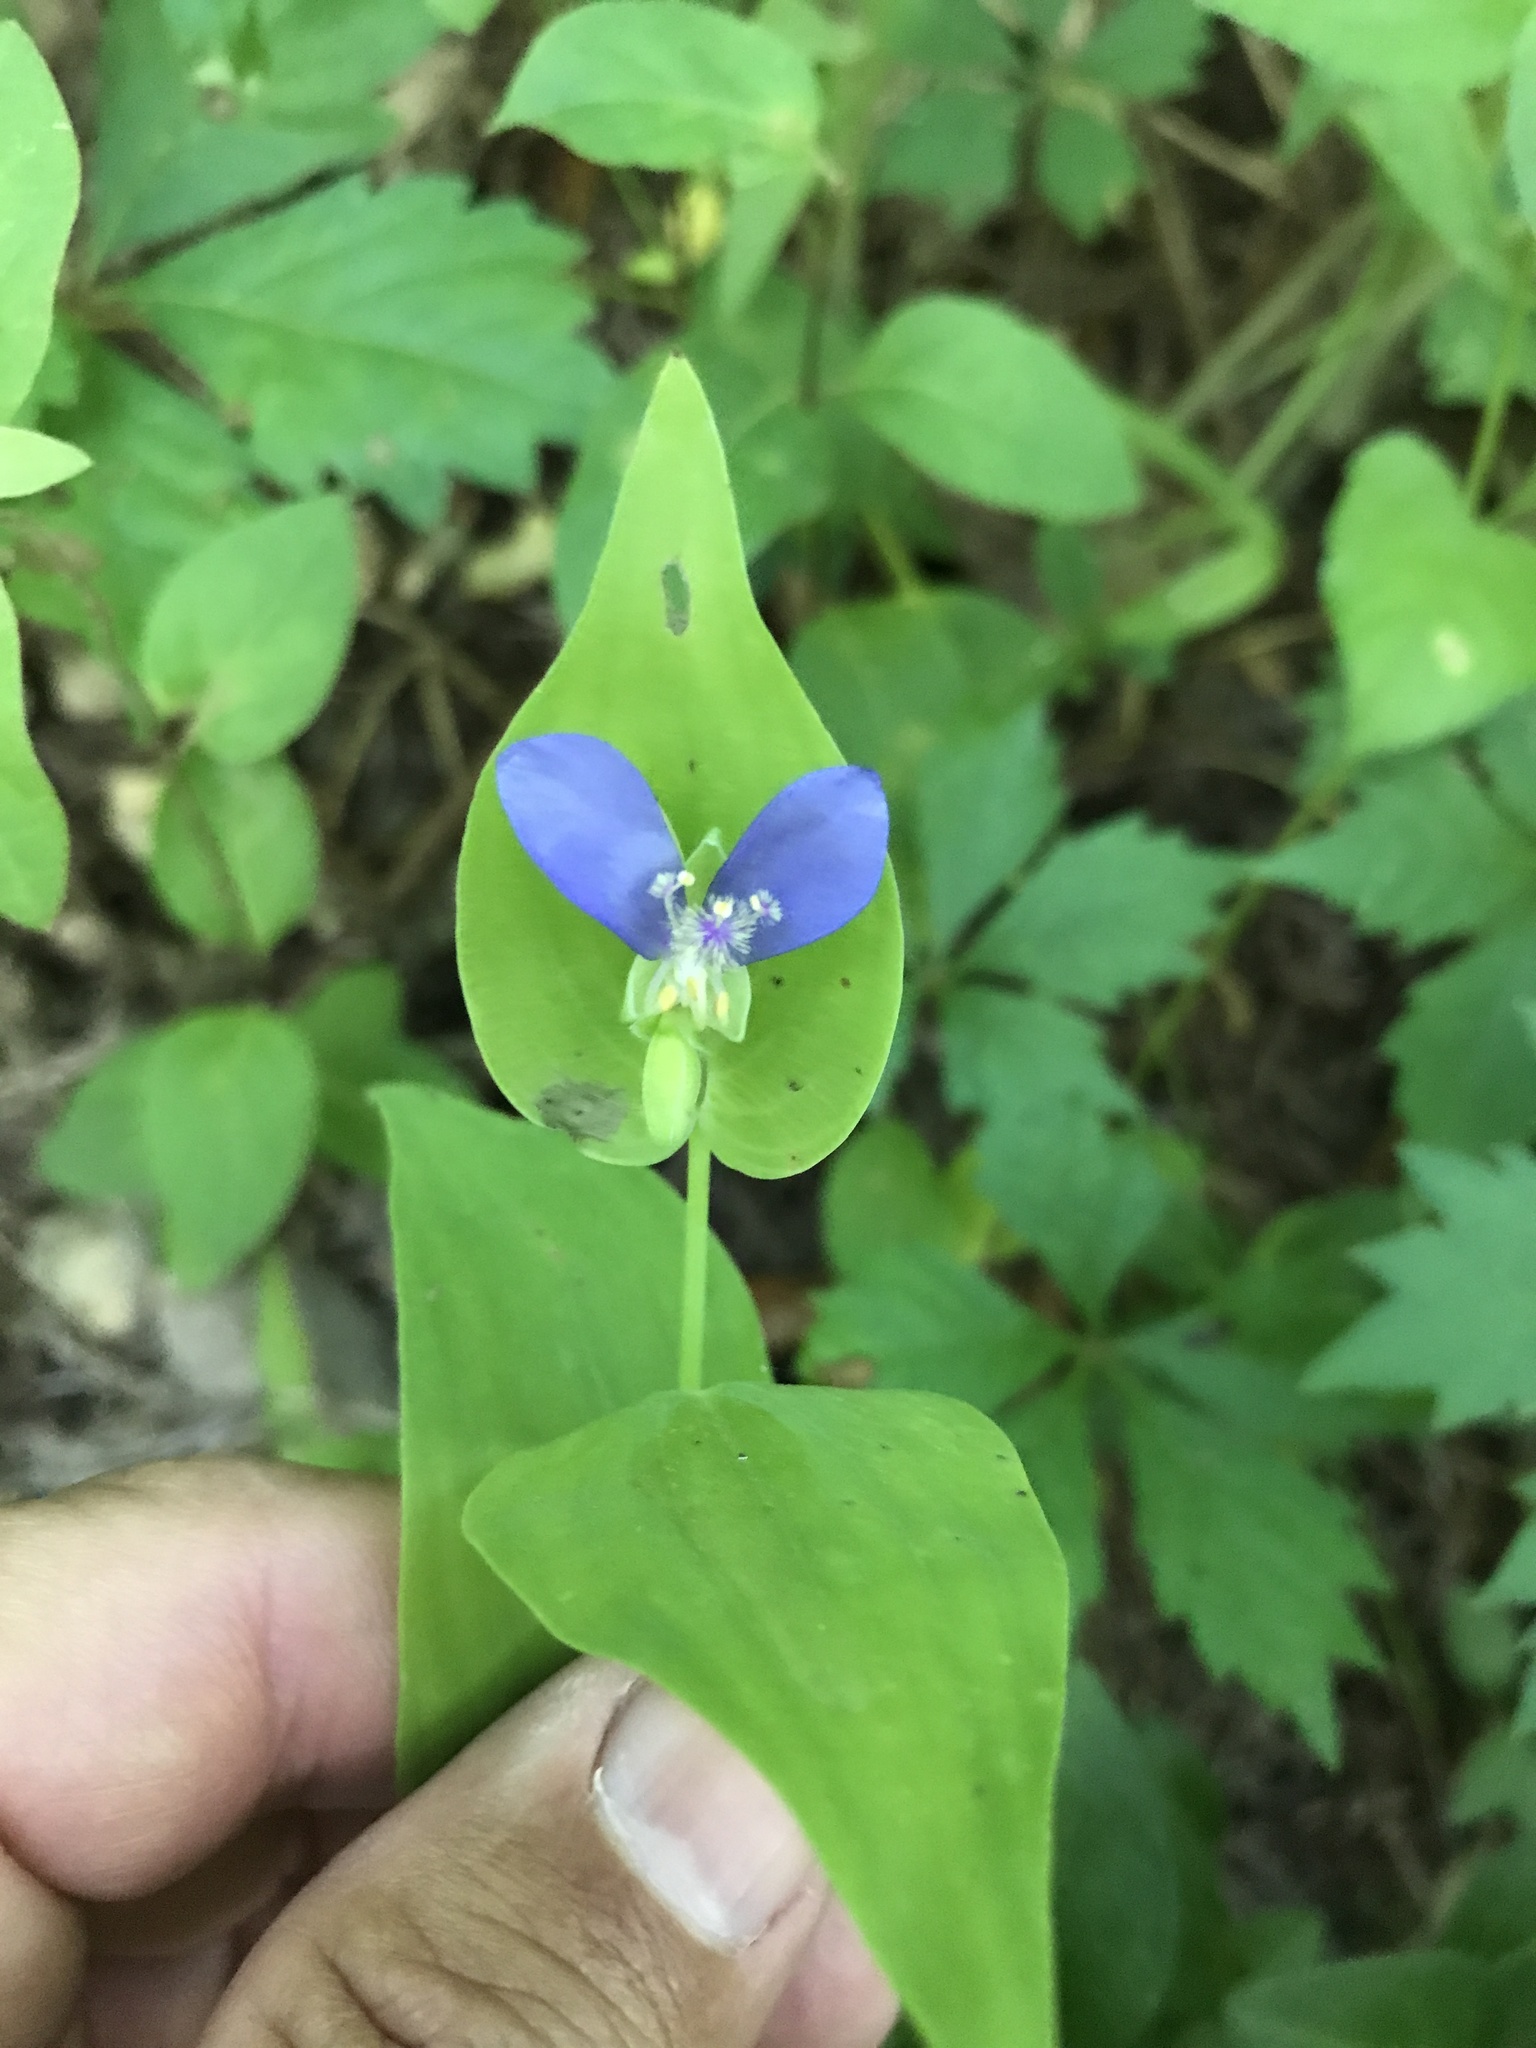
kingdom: Plantae
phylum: Tracheophyta
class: Liliopsida
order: Commelinales
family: Commelinaceae
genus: Tinantia
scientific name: Tinantia anomala
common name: False dayflower
